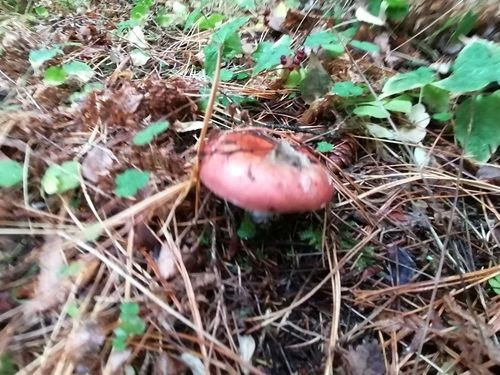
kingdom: Fungi
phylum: Basidiomycota
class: Agaricomycetes
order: Russulales
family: Russulaceae
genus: Russula
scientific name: Russula
